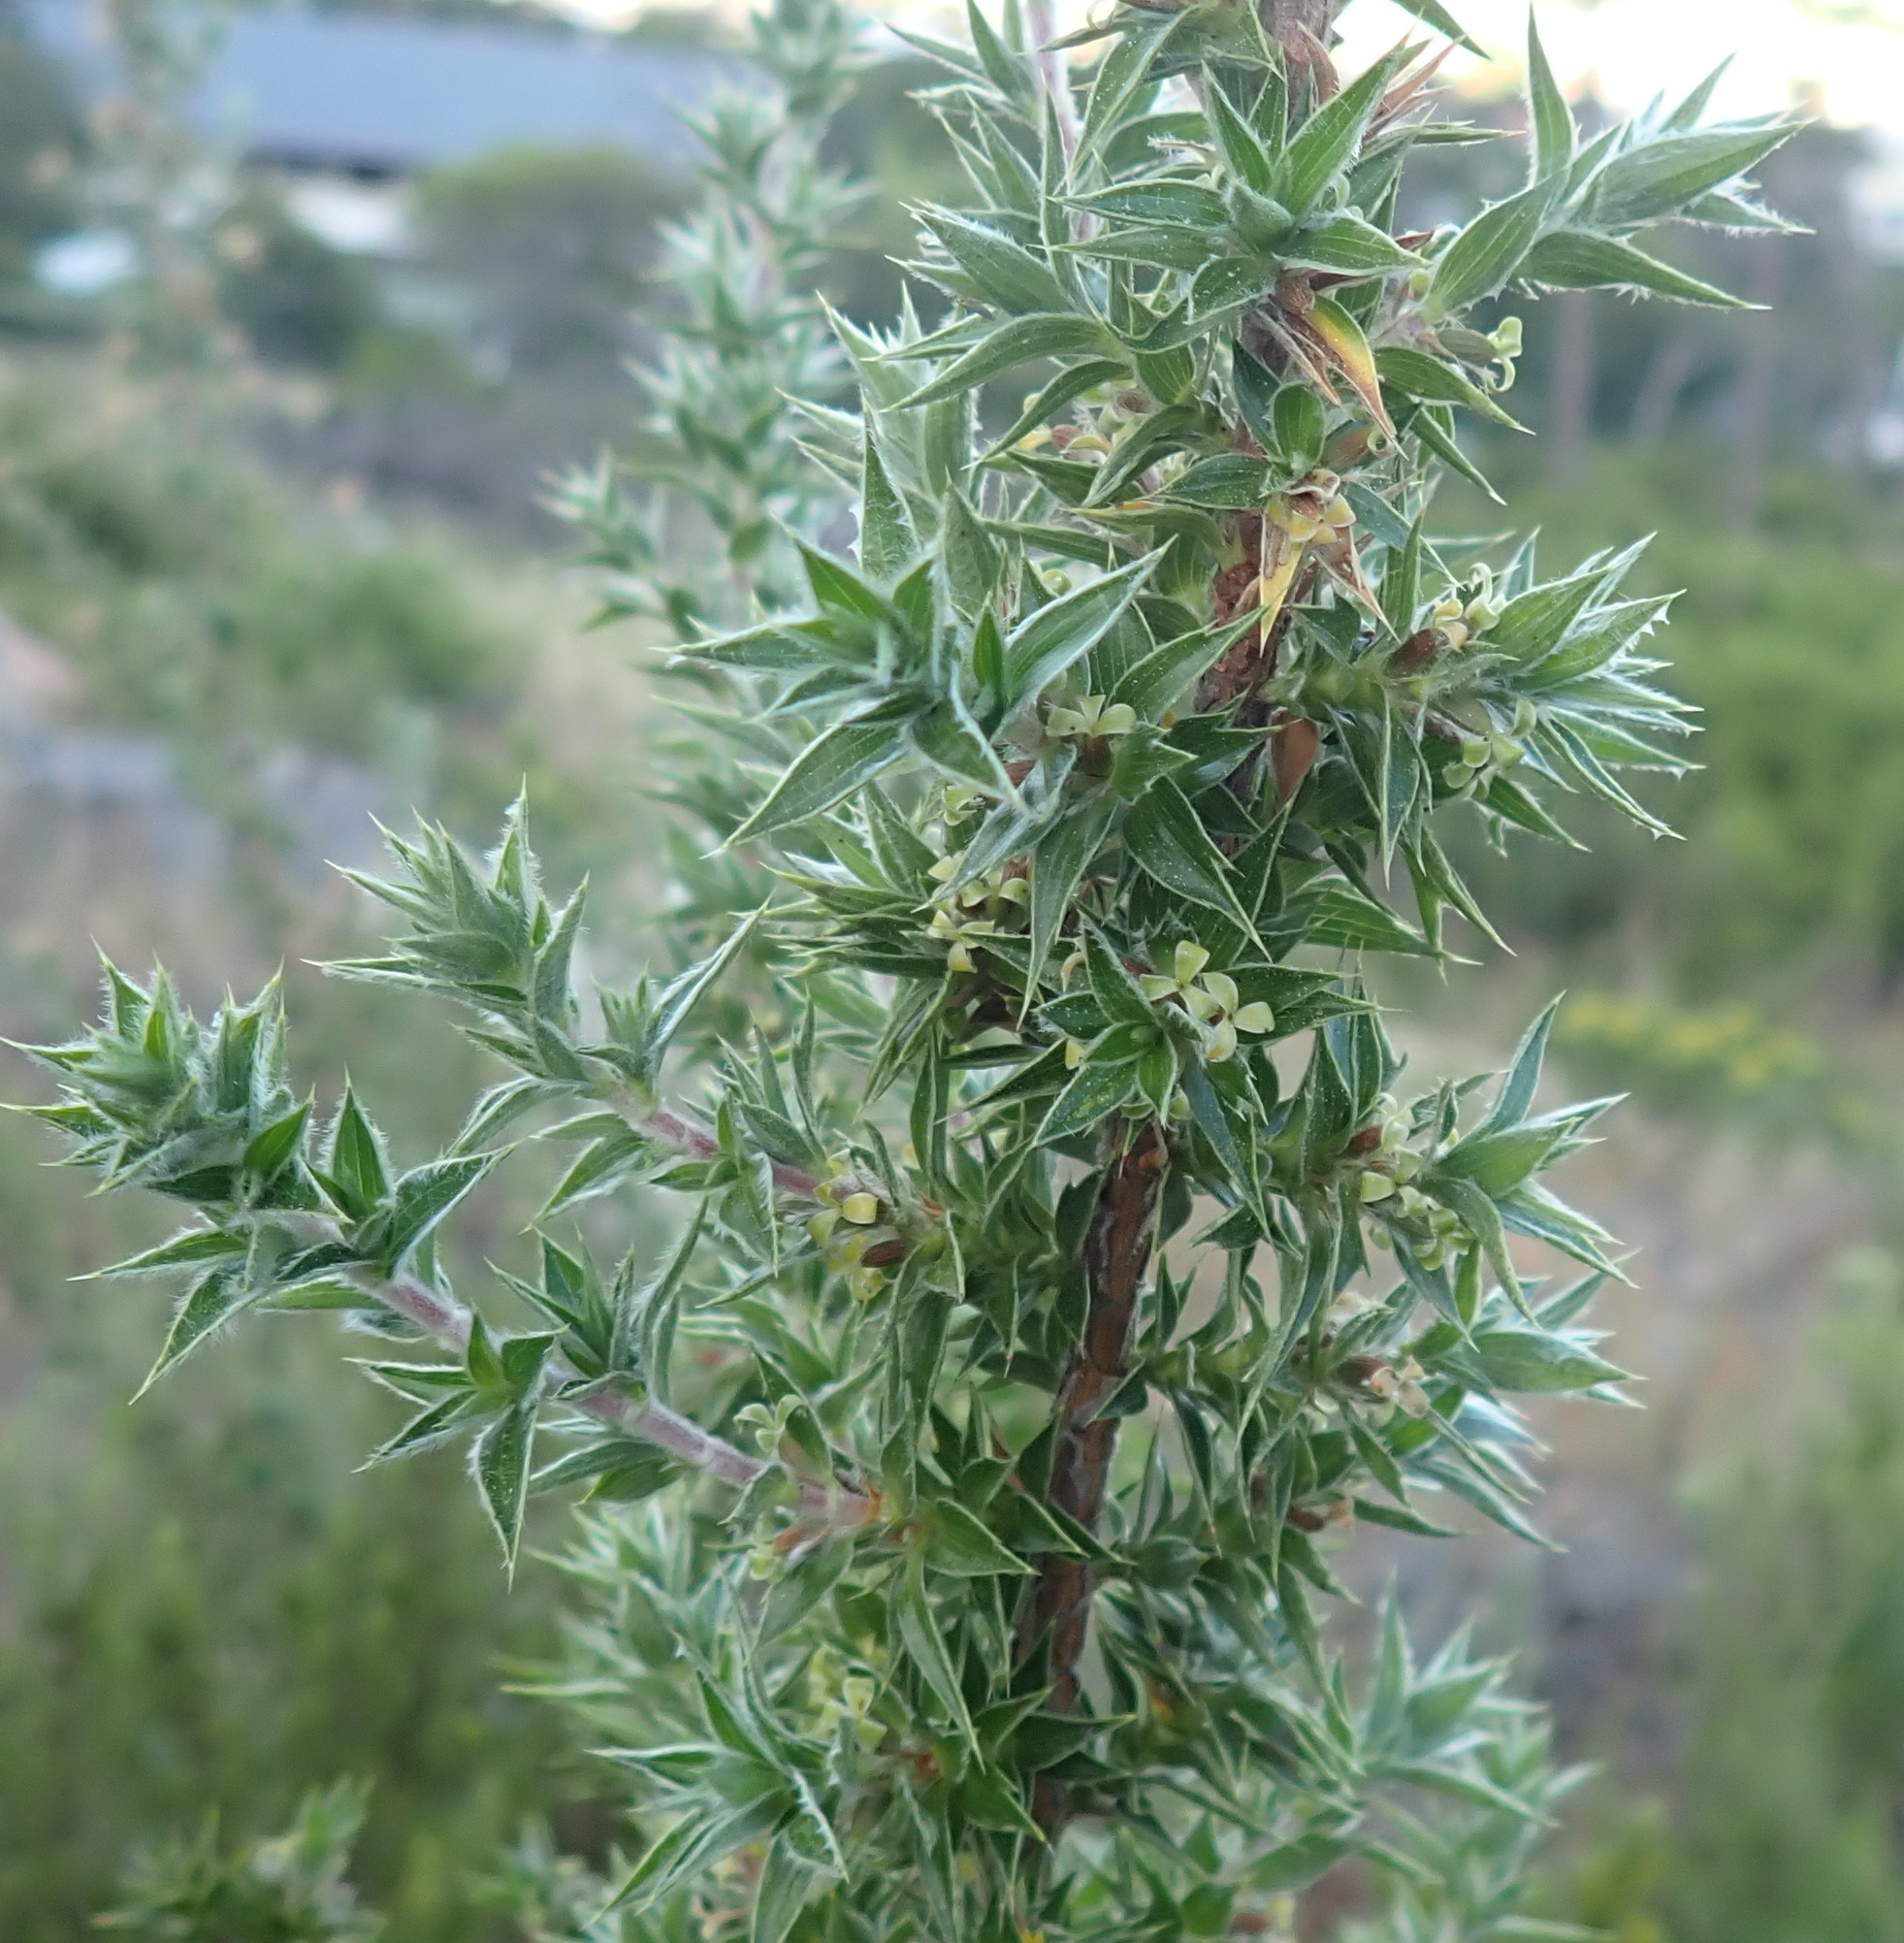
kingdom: Plantae
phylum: Tracheophyta
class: Magnoliopsida
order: Rosales
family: Rosaceae
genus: Cliffortia
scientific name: Cliffortia ruscifolia
